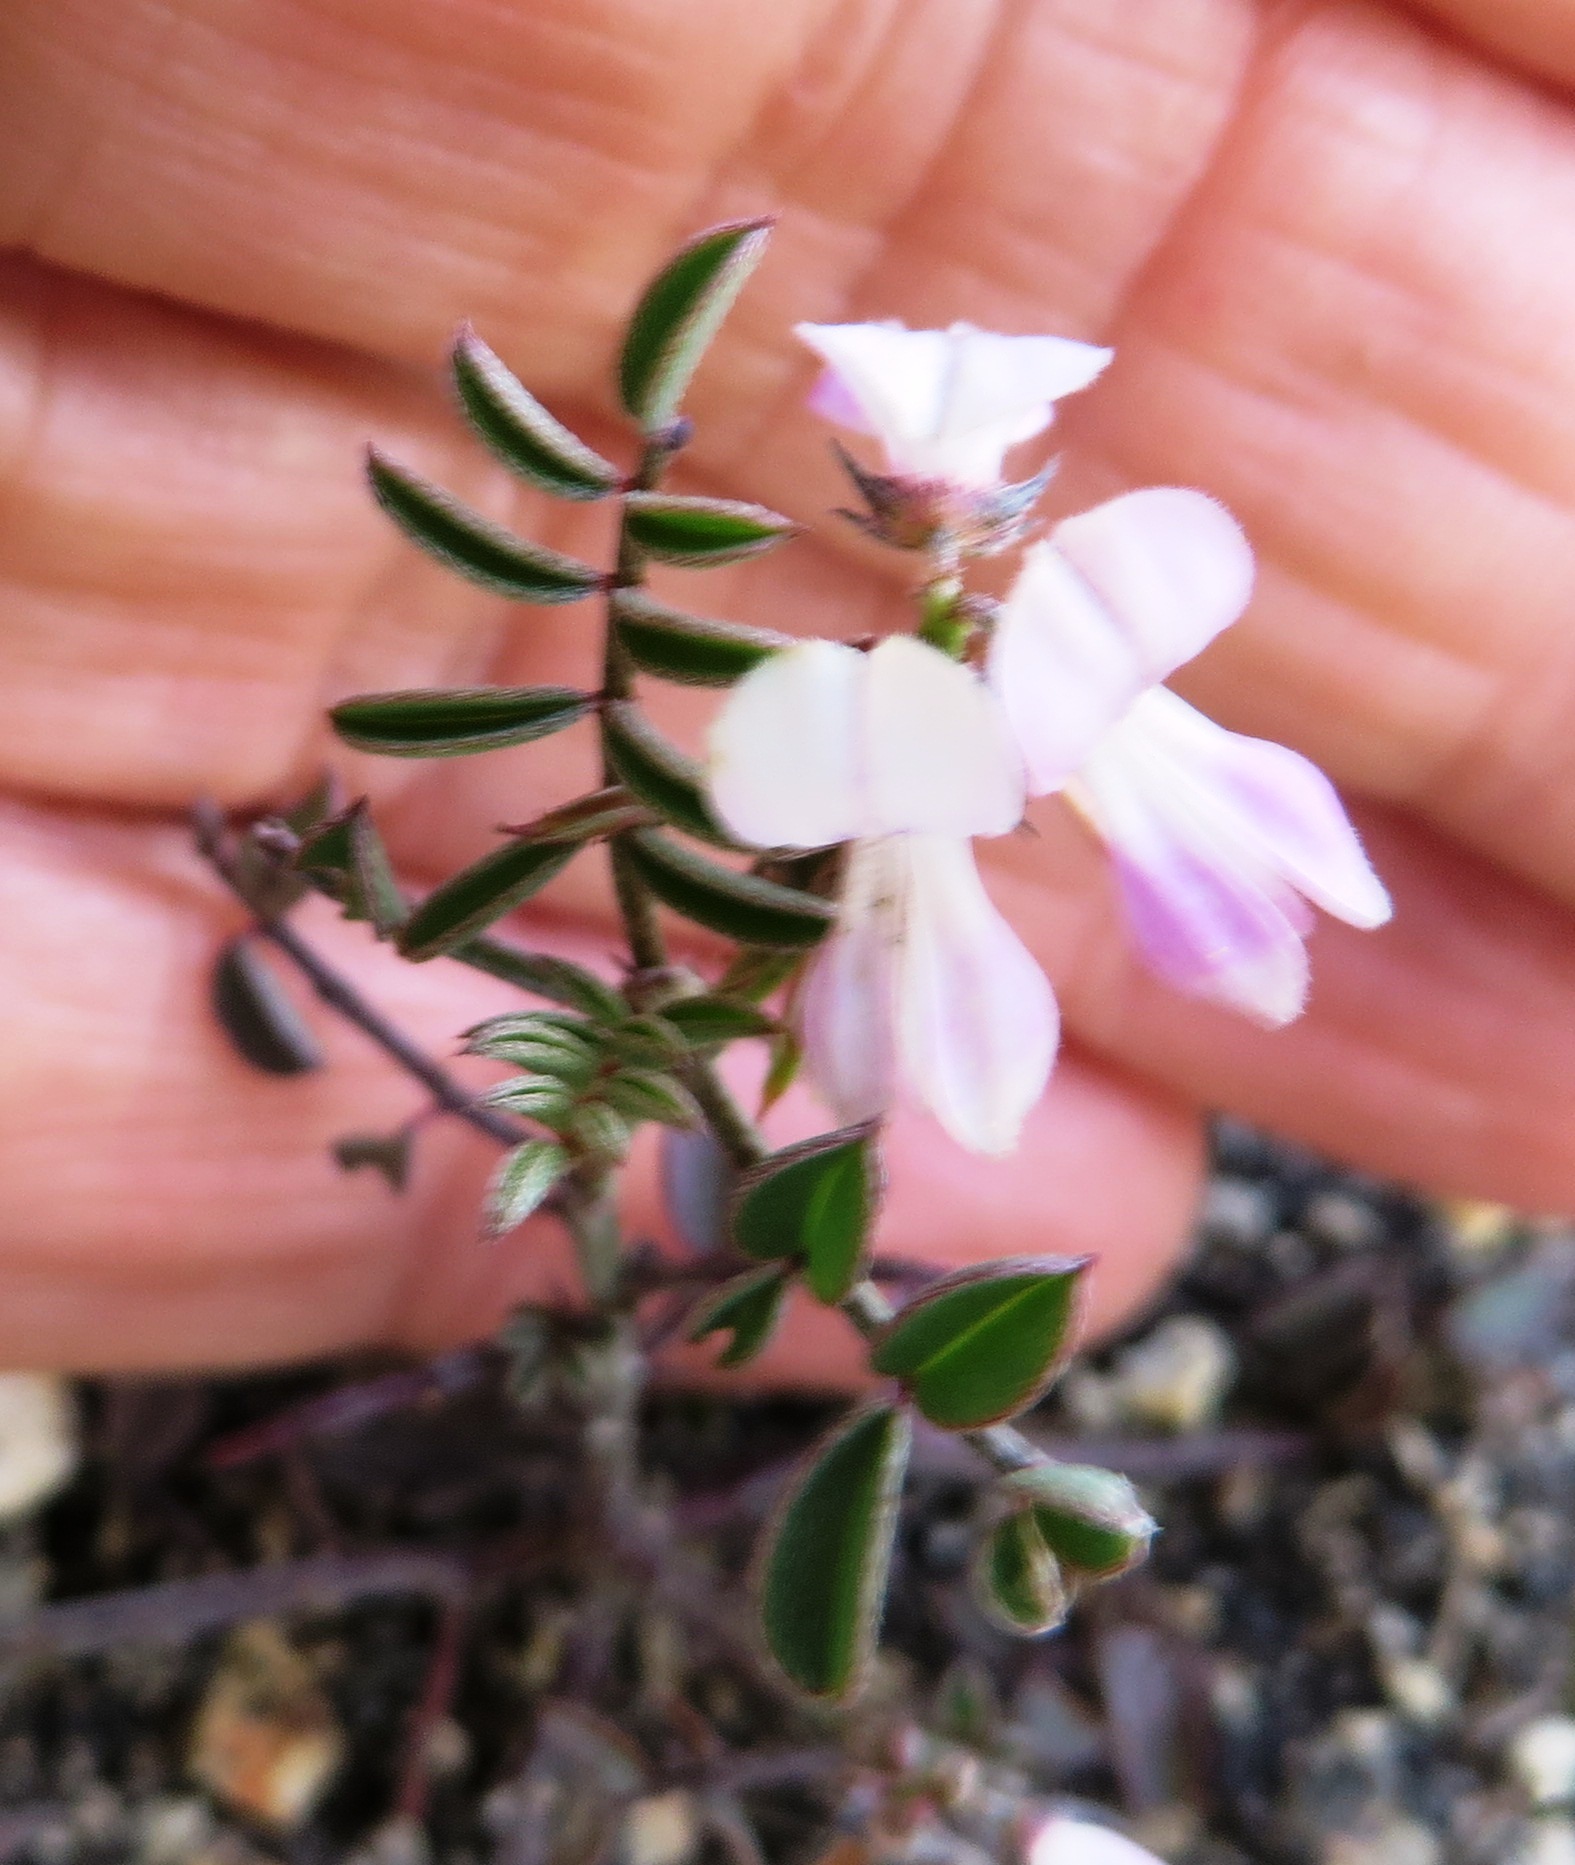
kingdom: Plantae
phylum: Tracheophyta
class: Magnoliopsida
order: Fabales
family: Fabaceae
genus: Indigofera
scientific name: Indigofera
